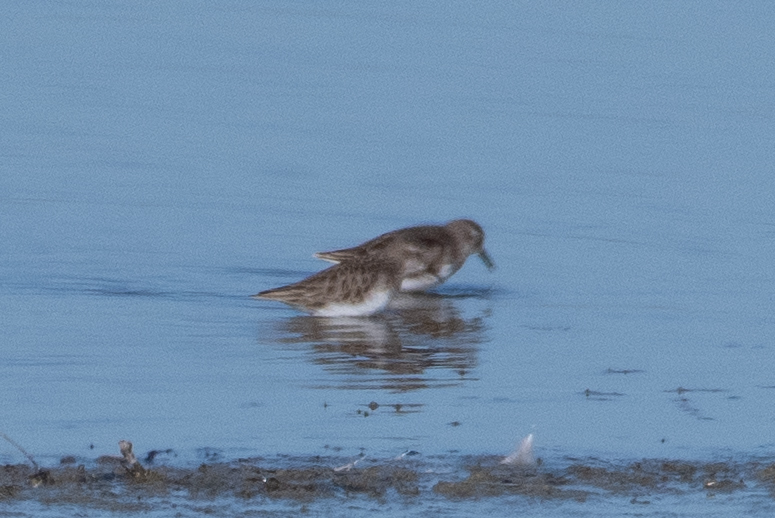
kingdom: Animalia
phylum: Chordata
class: Aves
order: Charadriiformes
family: Scolopacidae
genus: Calidris
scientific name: Calidris minutilla
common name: Least sandpiper
